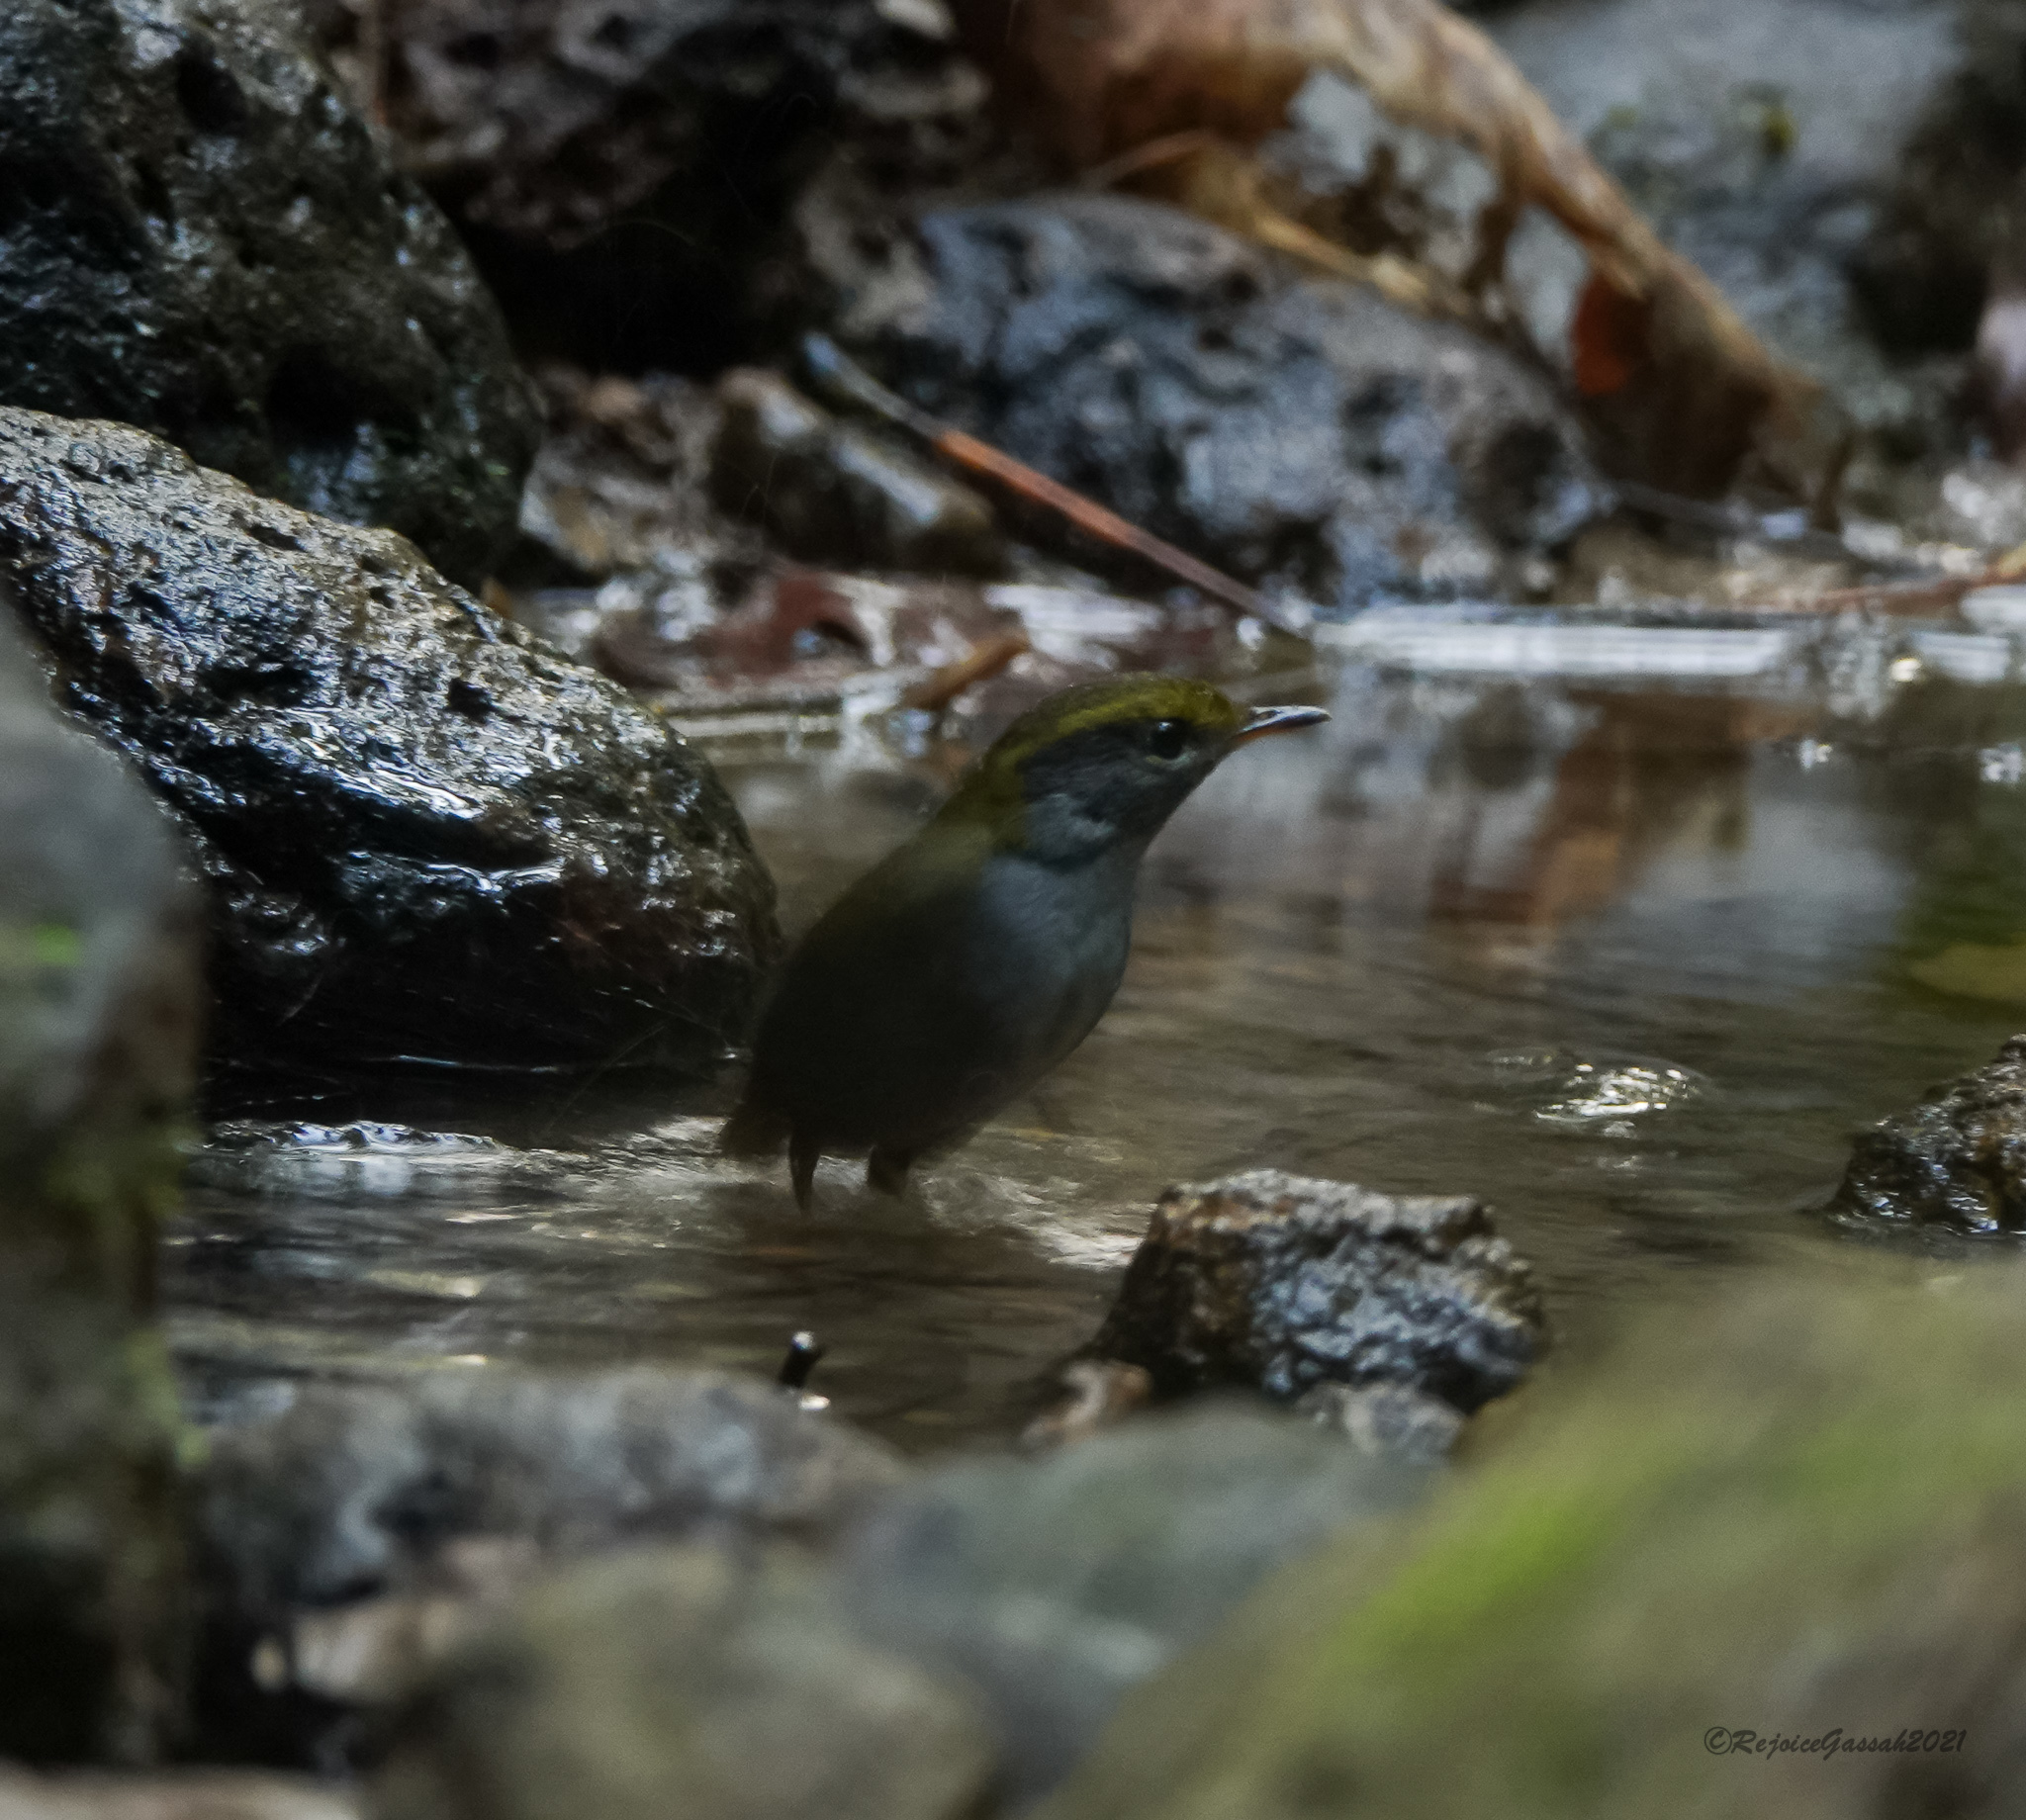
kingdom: Animalia
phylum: Chordata
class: Aves
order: Passeriformes
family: Cettiidae
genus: Tesia
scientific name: Tesia cyaniventer
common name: Grey-bellied tesia
